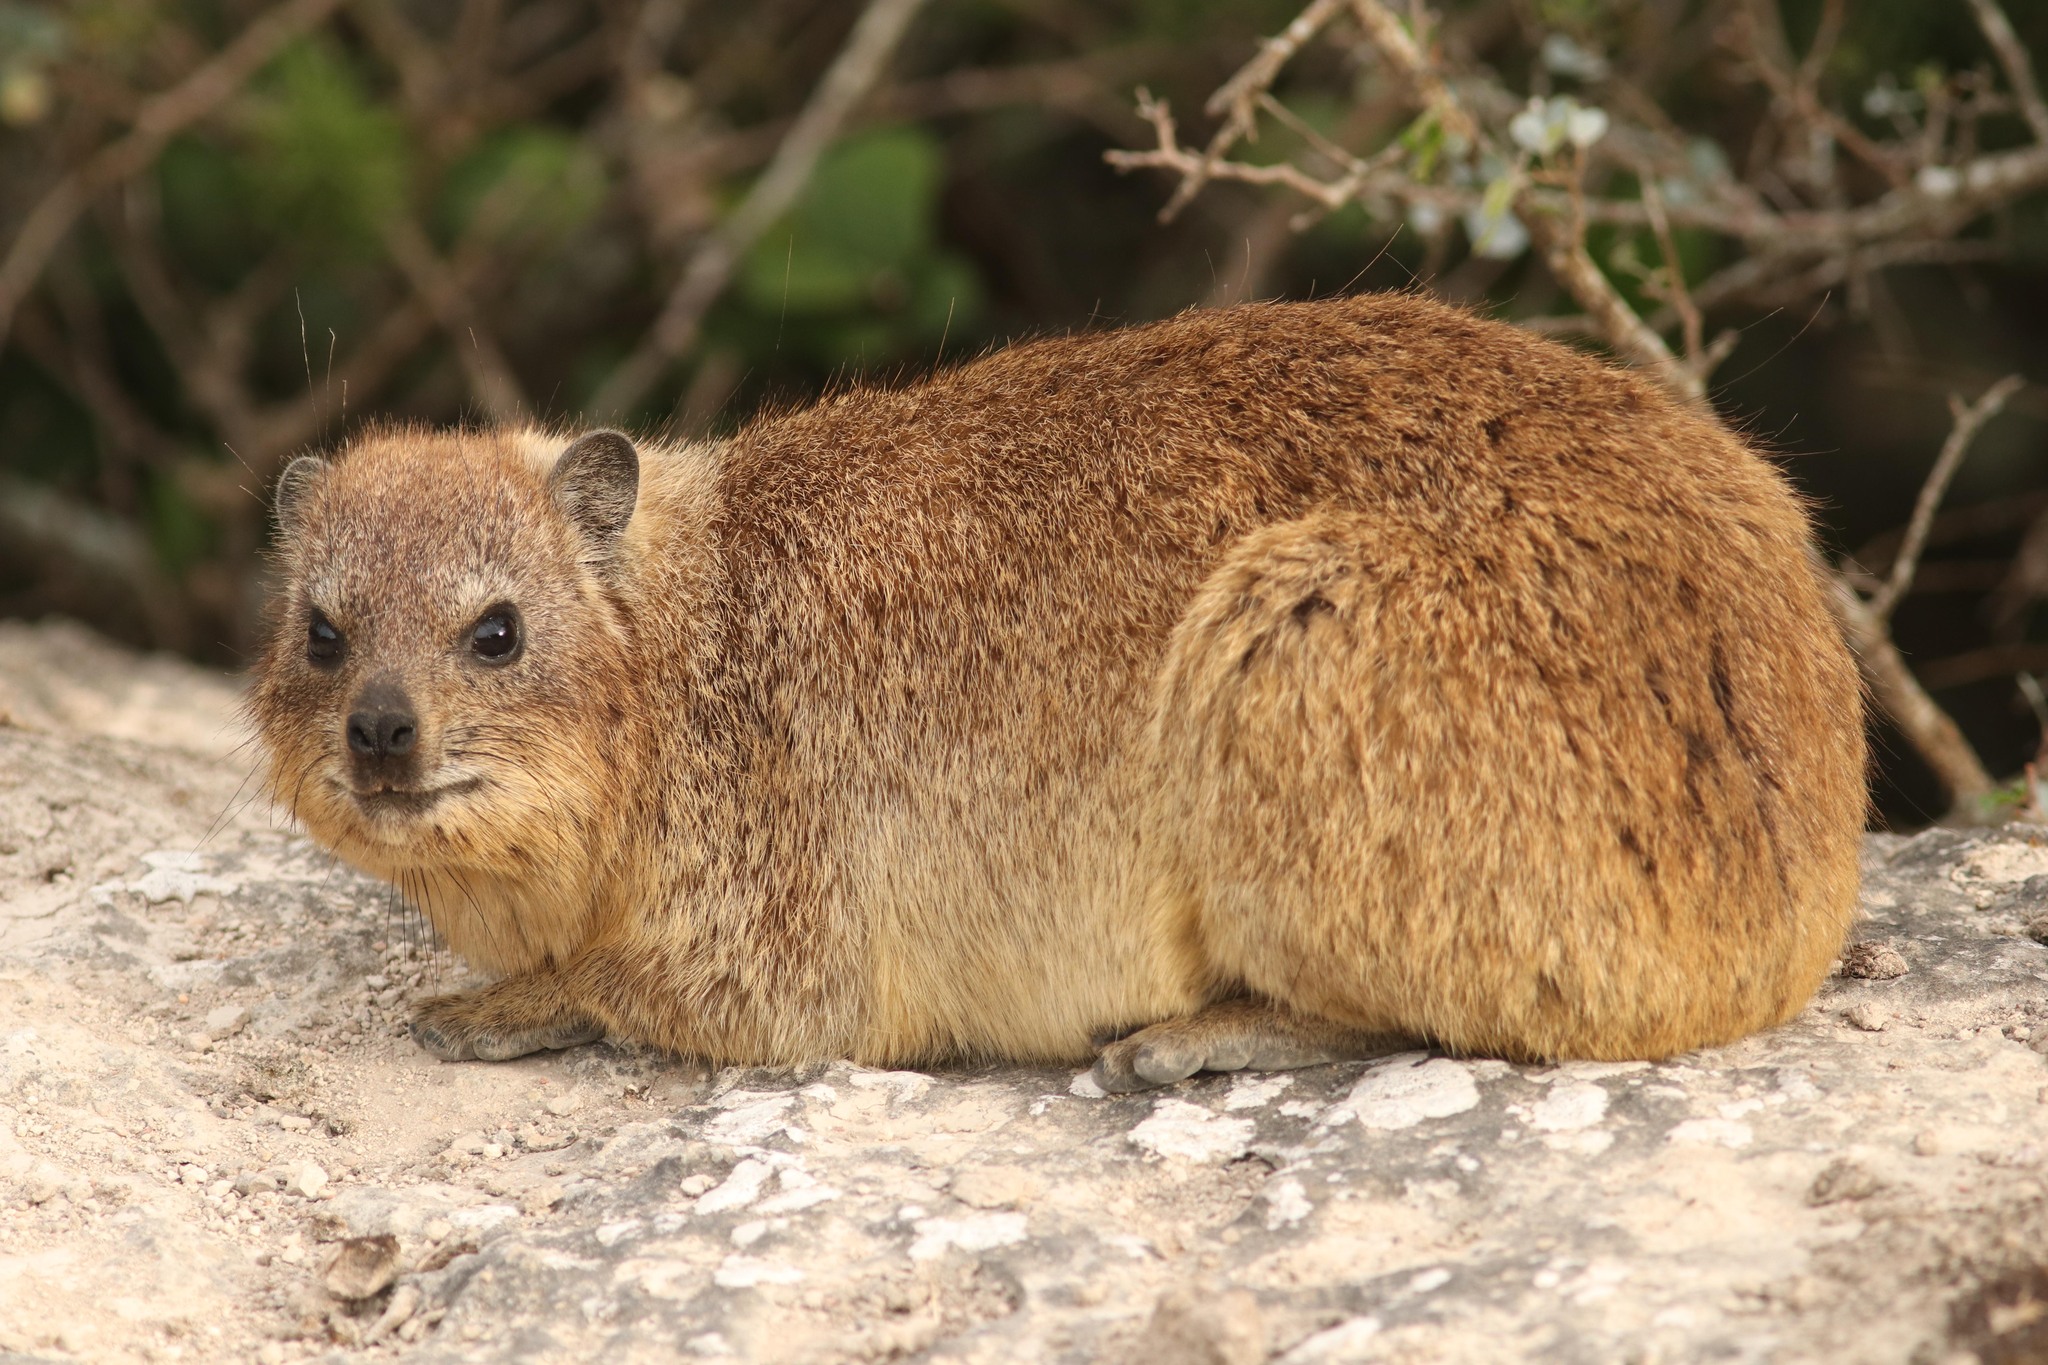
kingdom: Animalia
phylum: Chordata
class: Mammalia
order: Hyracoidea
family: Procaviidae
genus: Procavia
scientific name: Procavia capensis
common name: Rock hyrax
